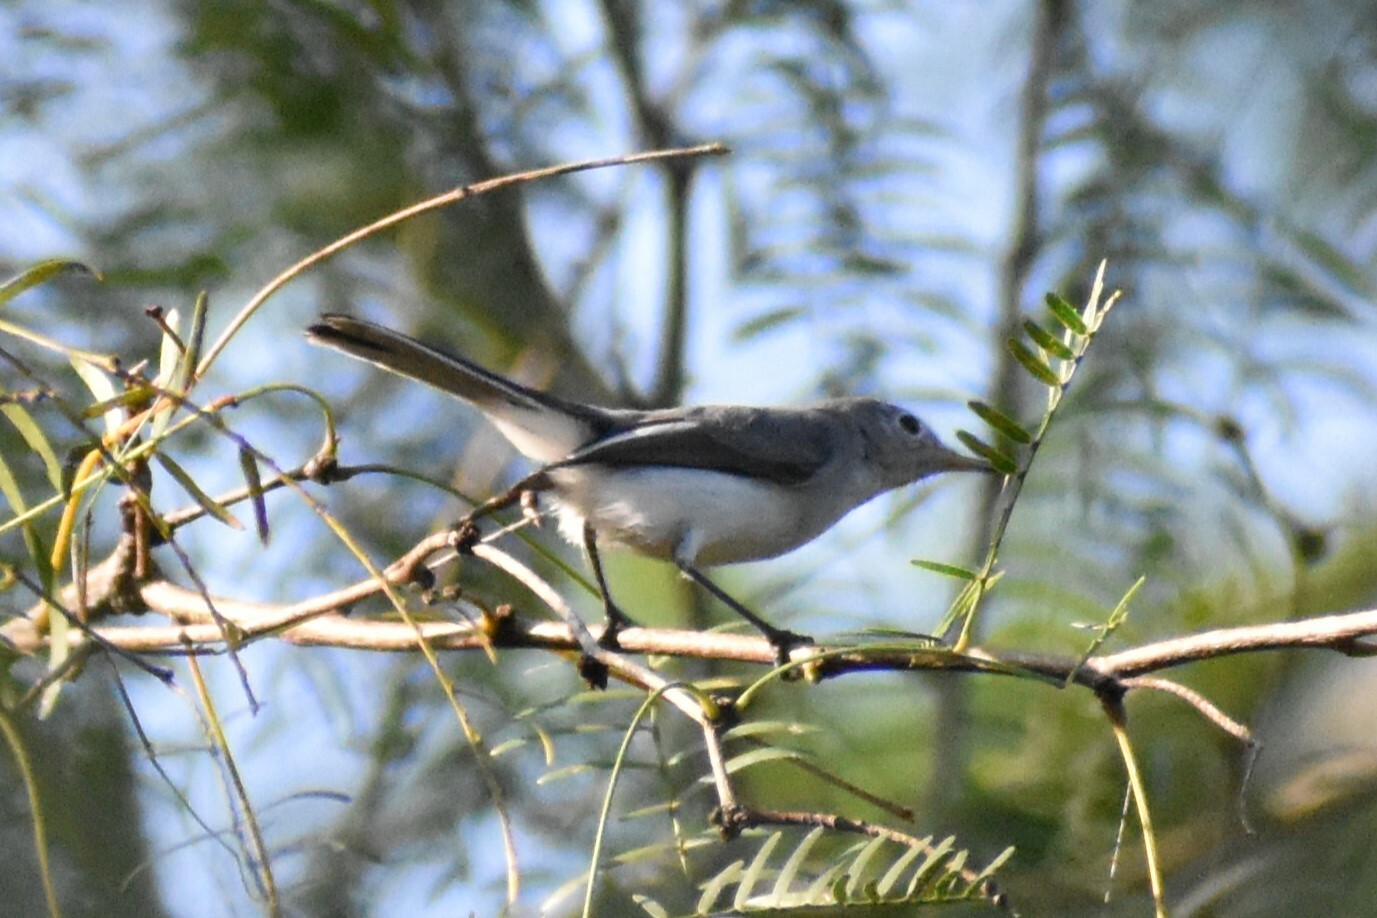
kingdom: Animalia
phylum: Chordata
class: Aves
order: Passeriformes
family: Polioptilidae
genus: Polioptila
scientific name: Polioptila caerulea
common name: Blue-gray gnatcatcher
